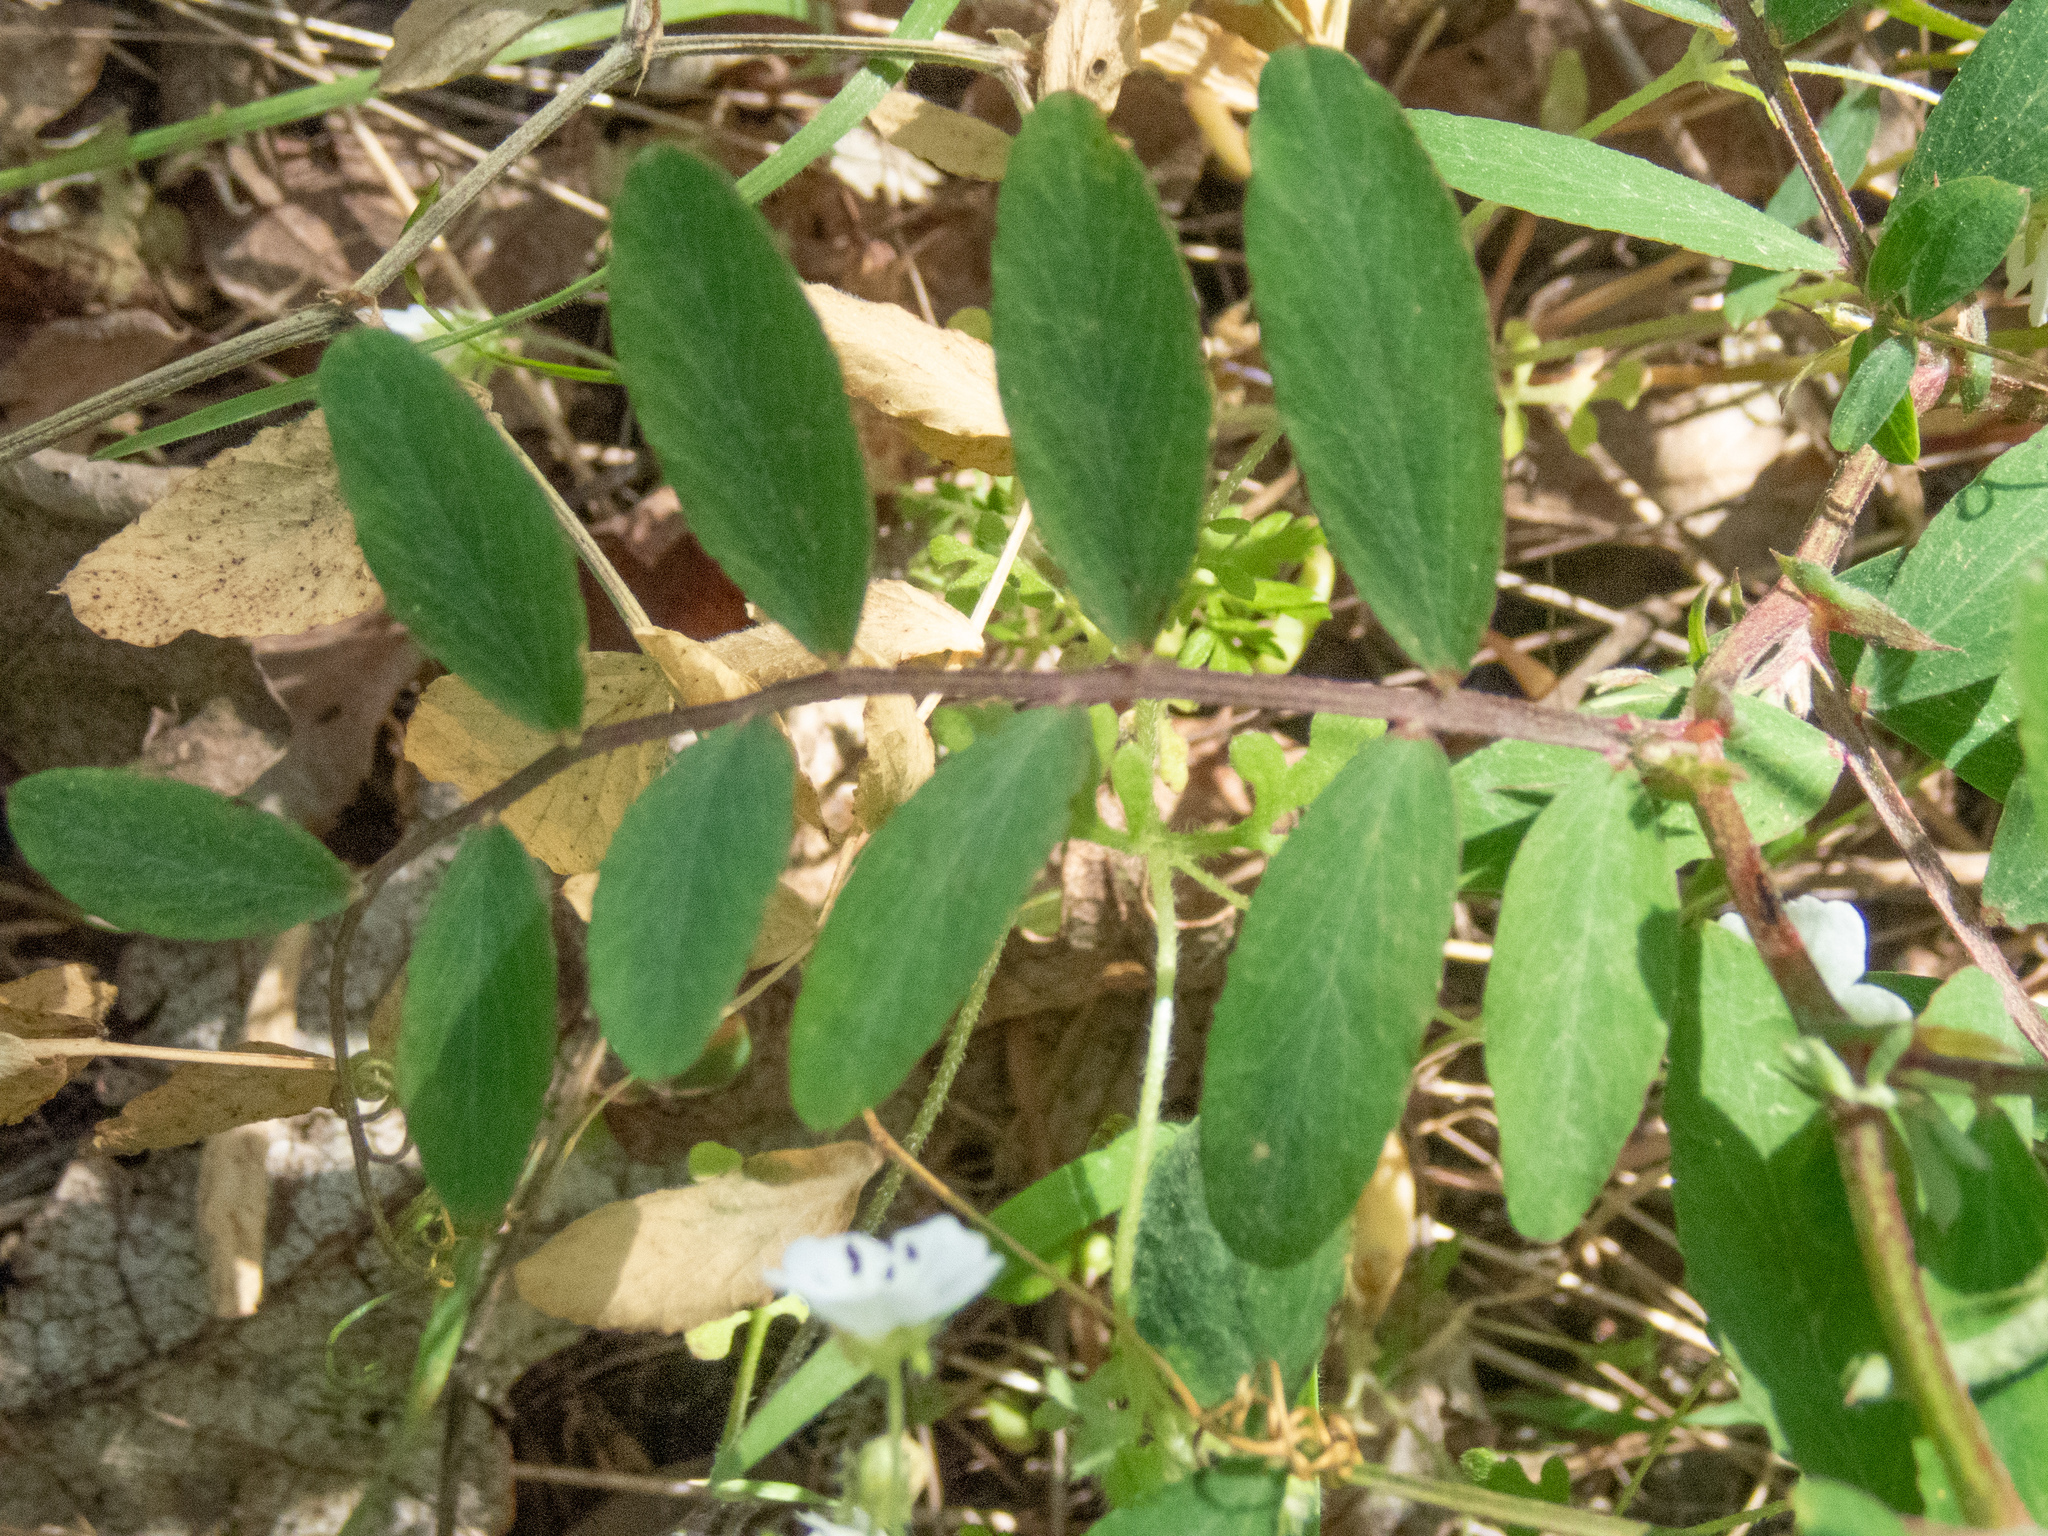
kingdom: Plantae
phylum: Tracheophyta
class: Magnoliopsida
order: Fabales
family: Fabaceae
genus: Lathyrus
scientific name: Lathyrus vestitus
